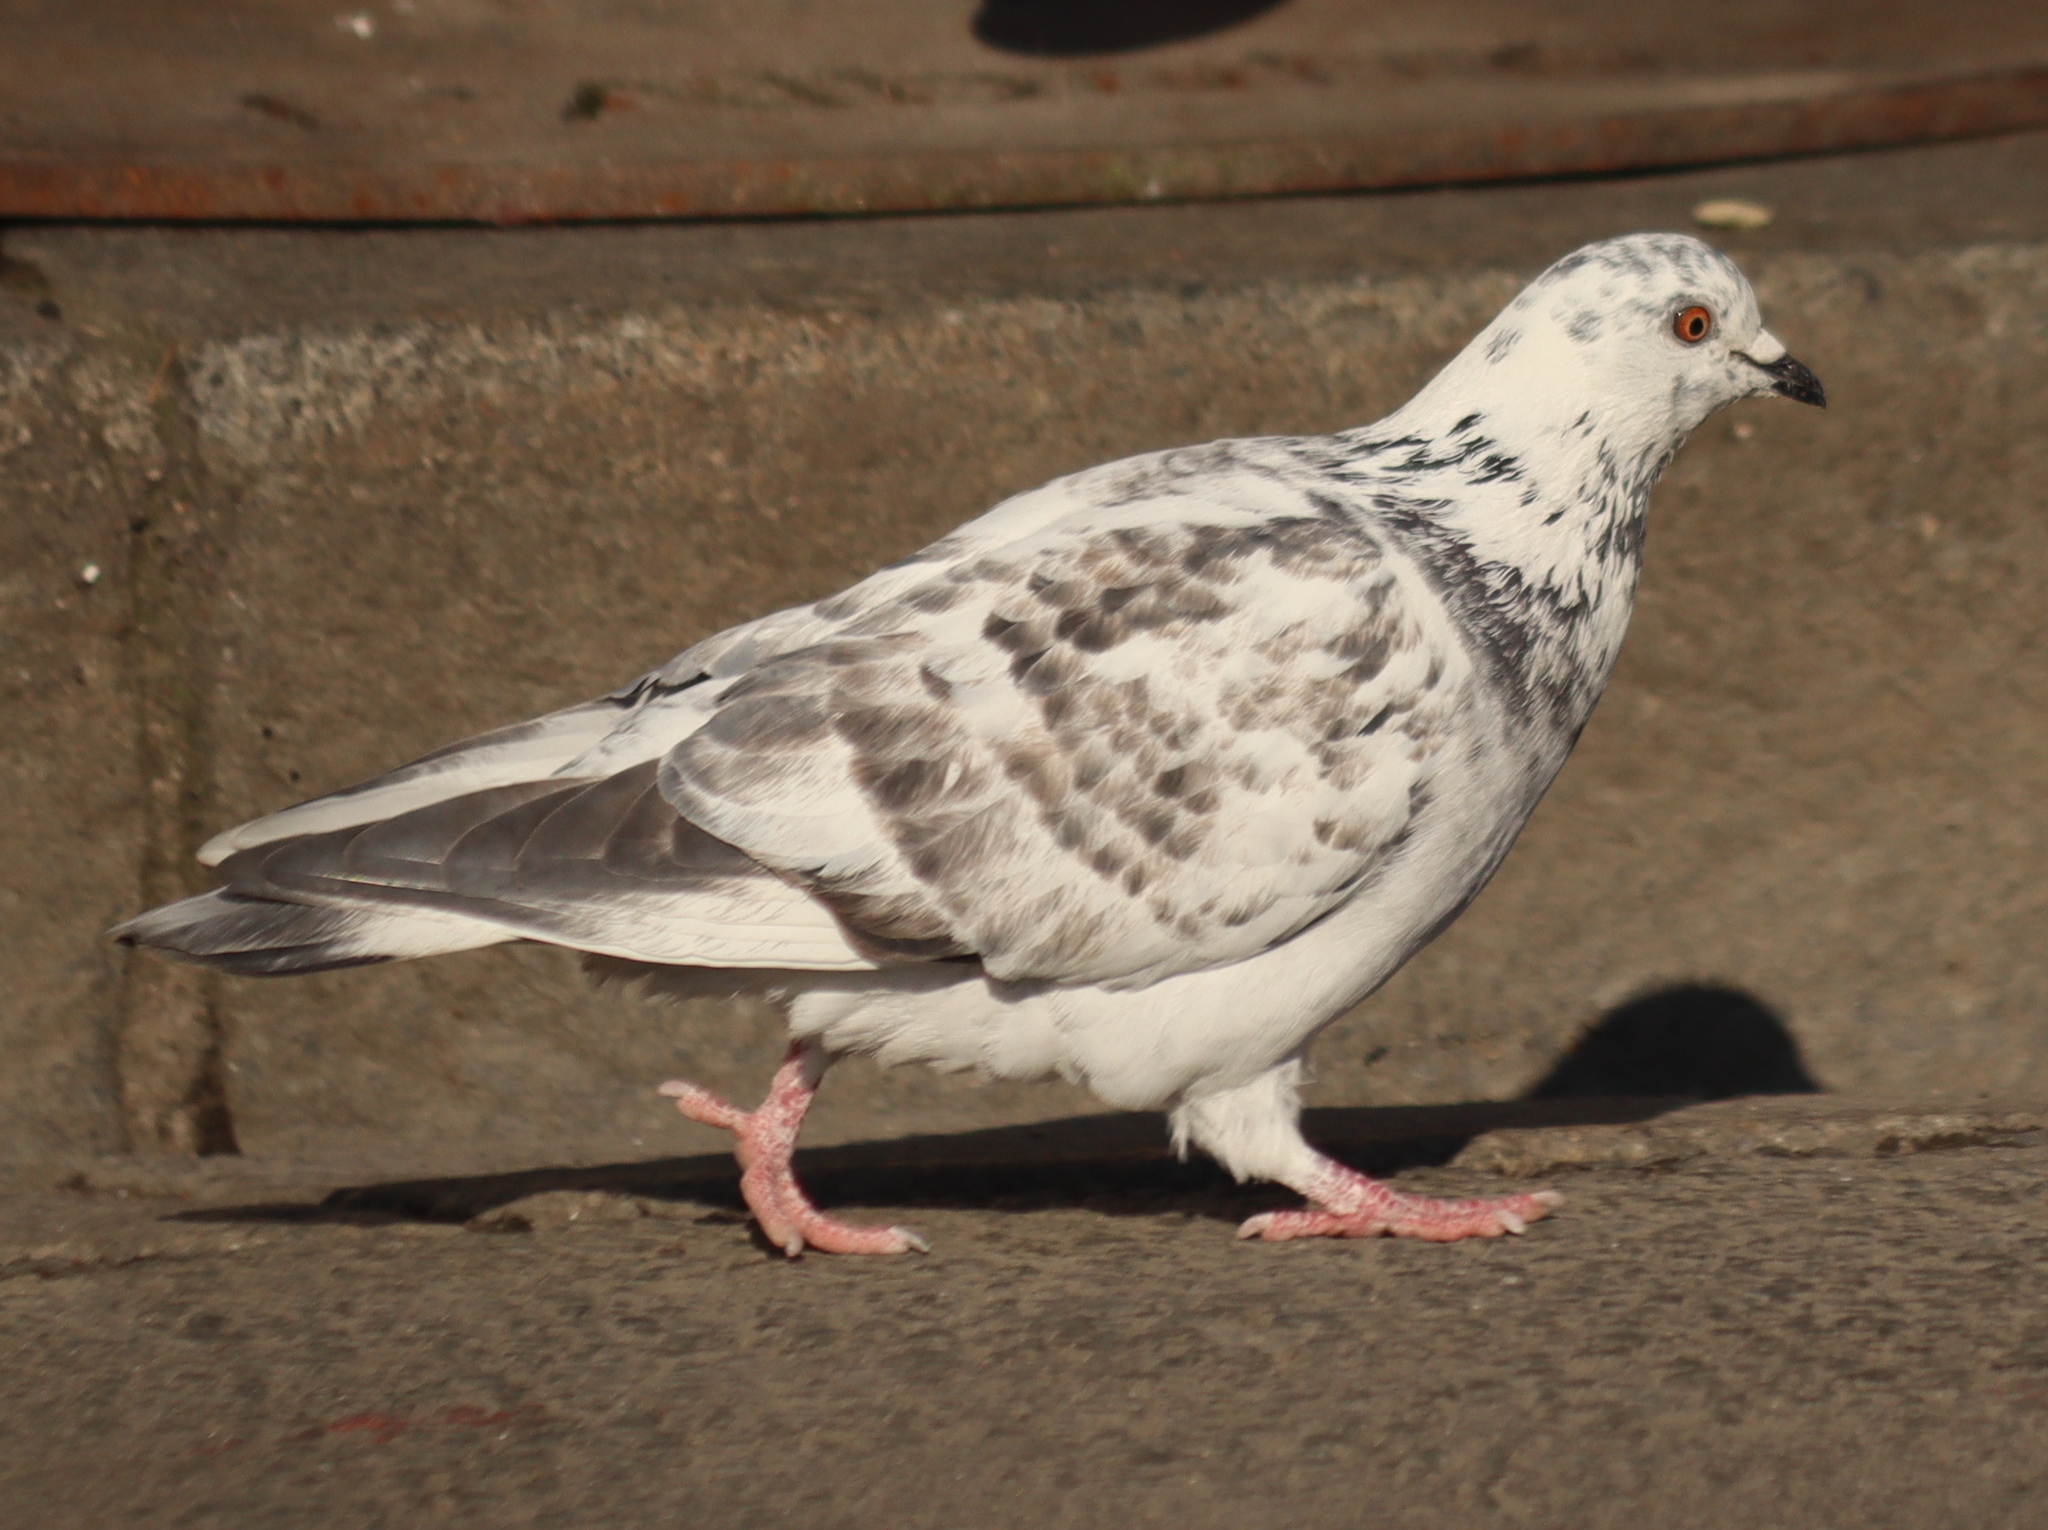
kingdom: Animalia
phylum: Chordata
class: Aves
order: Columbiformes
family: Columbidae
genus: Columba
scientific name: Columba livia
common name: Rock pigeon
